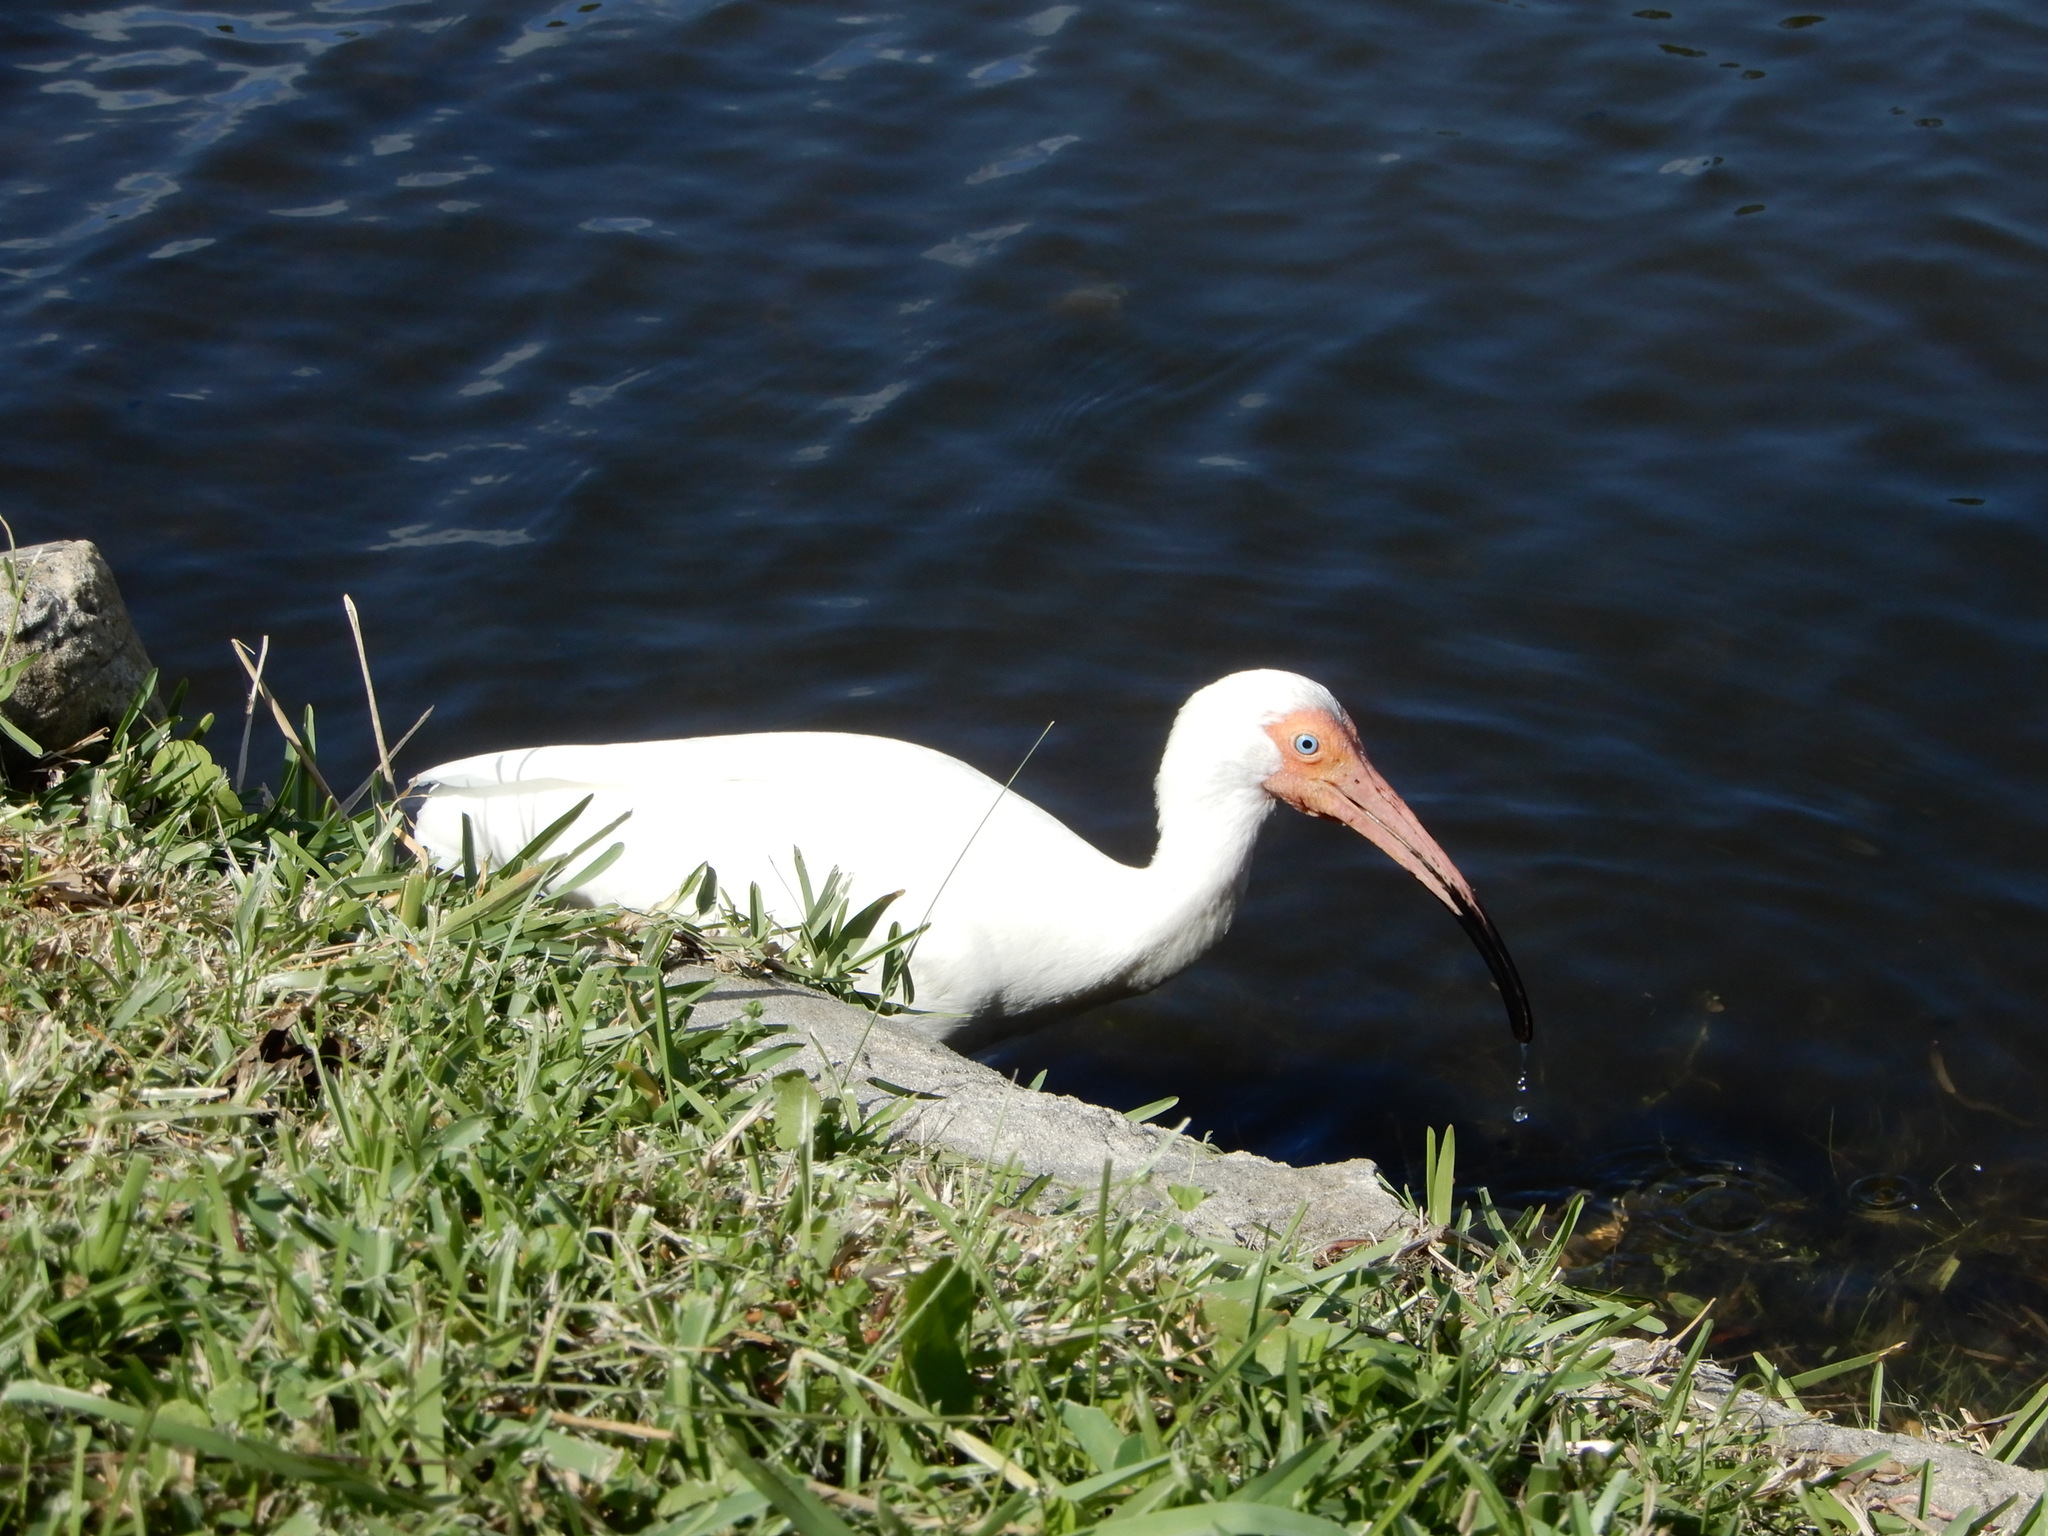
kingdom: Animalia
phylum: Chordata
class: Aves
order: Pelecaniformes
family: Threskiornithidae
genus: Eudocimus
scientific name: Eudocimus albus
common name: White ibis
